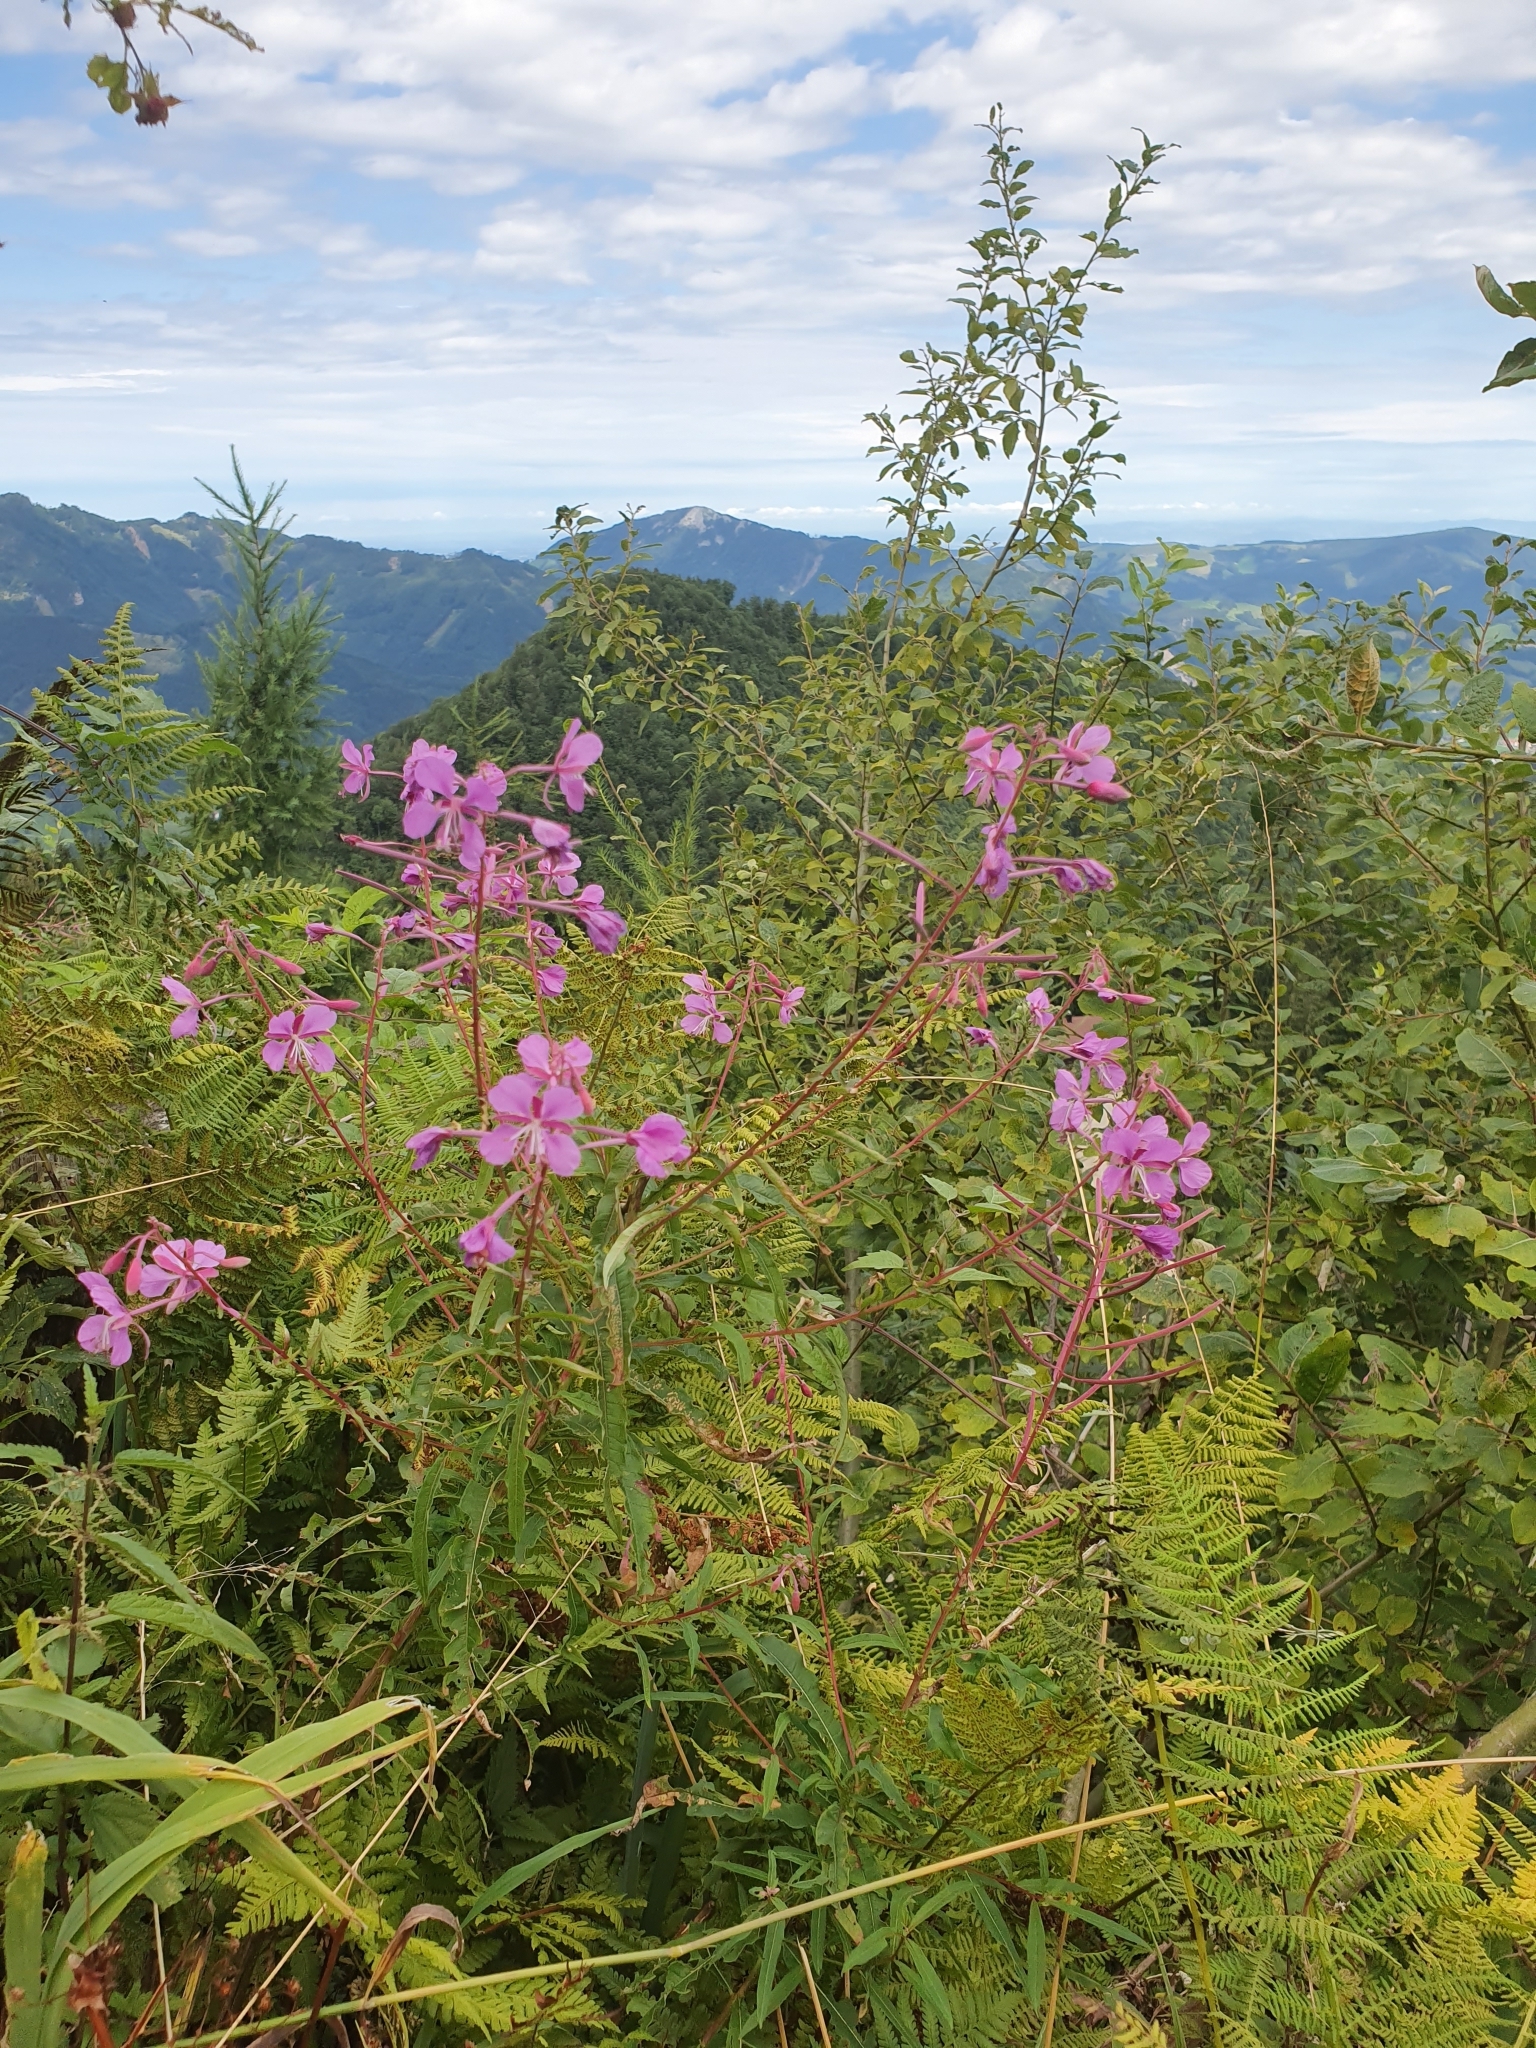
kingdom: Plantae
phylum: Tracheophyta
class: Magnoliopsida
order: Myrtales
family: Onagraceae
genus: Chamaenerion
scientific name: Chamaenerion angustifolium
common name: Fireweed
